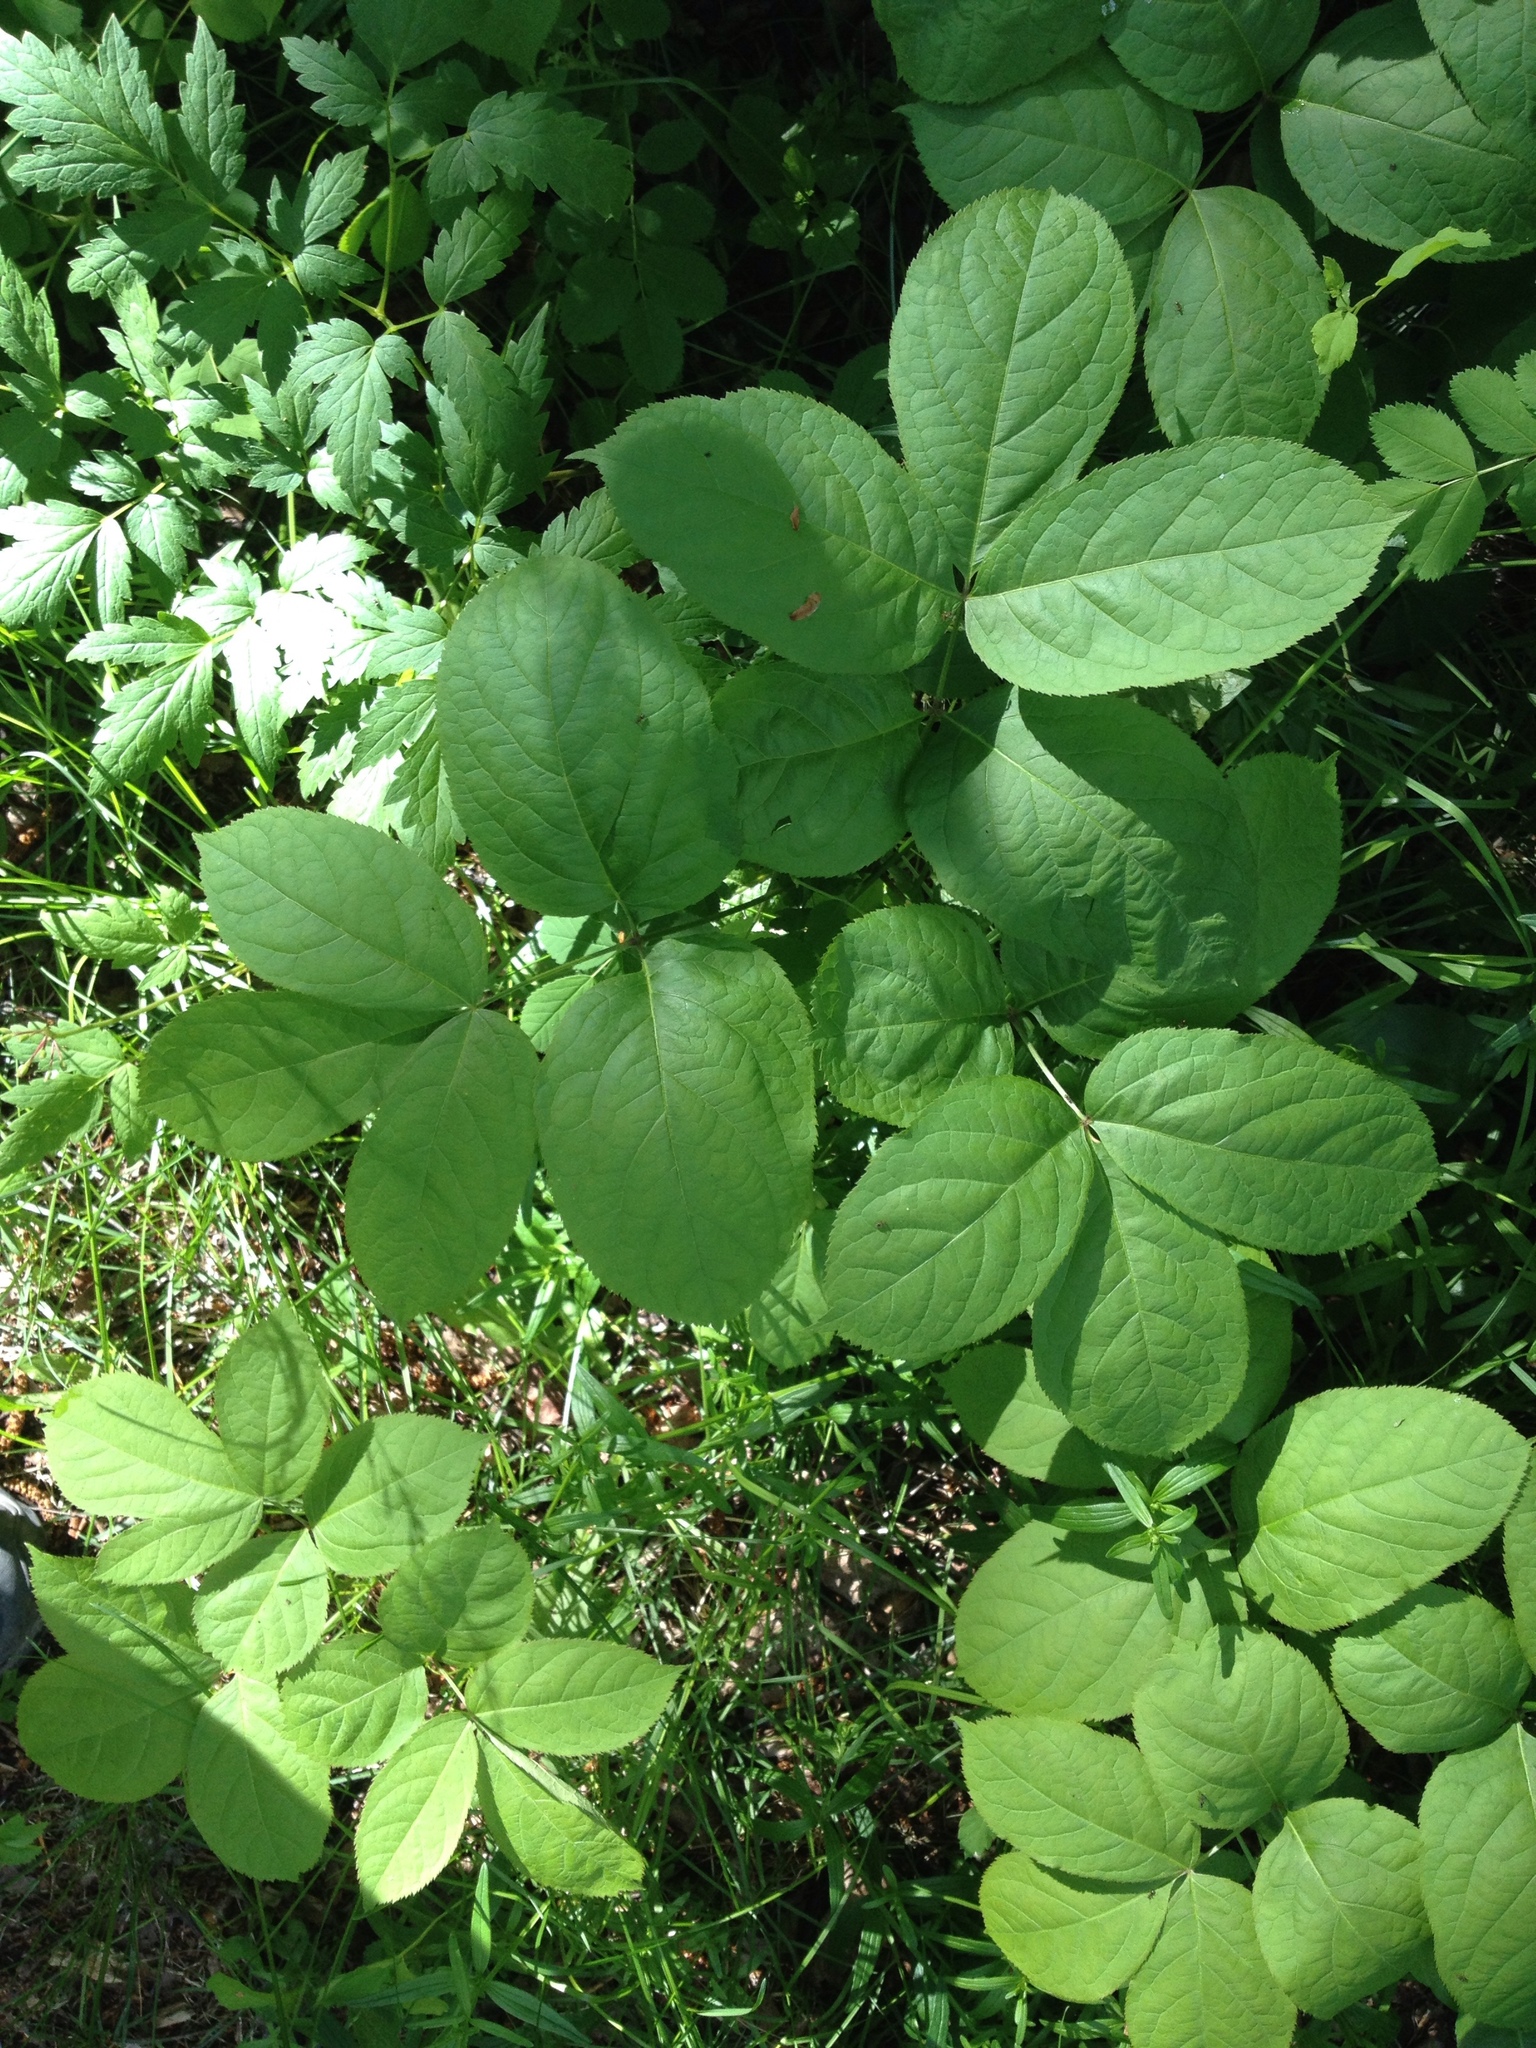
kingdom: Plantae
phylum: Tracheophyta
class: Magnoliopsida
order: Apiales
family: Araliaceae
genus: Aralia
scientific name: Aralia nudicaulis
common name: Wild sarsaparilla
